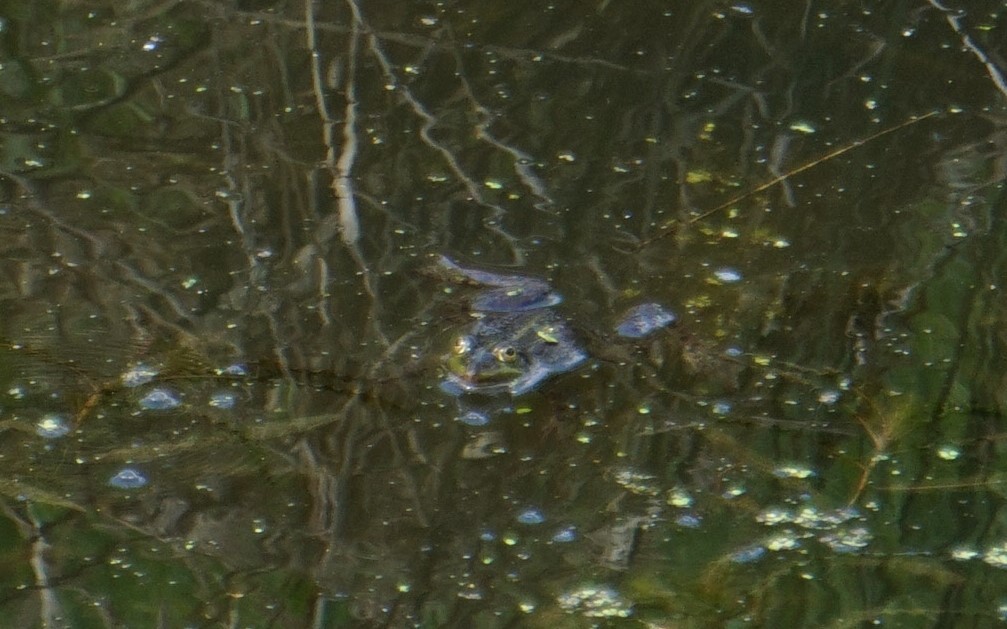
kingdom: Animalia
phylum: Chordata
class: Amphibia
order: Anura
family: Ranidae
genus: Pelophylax
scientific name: Pelophylax
